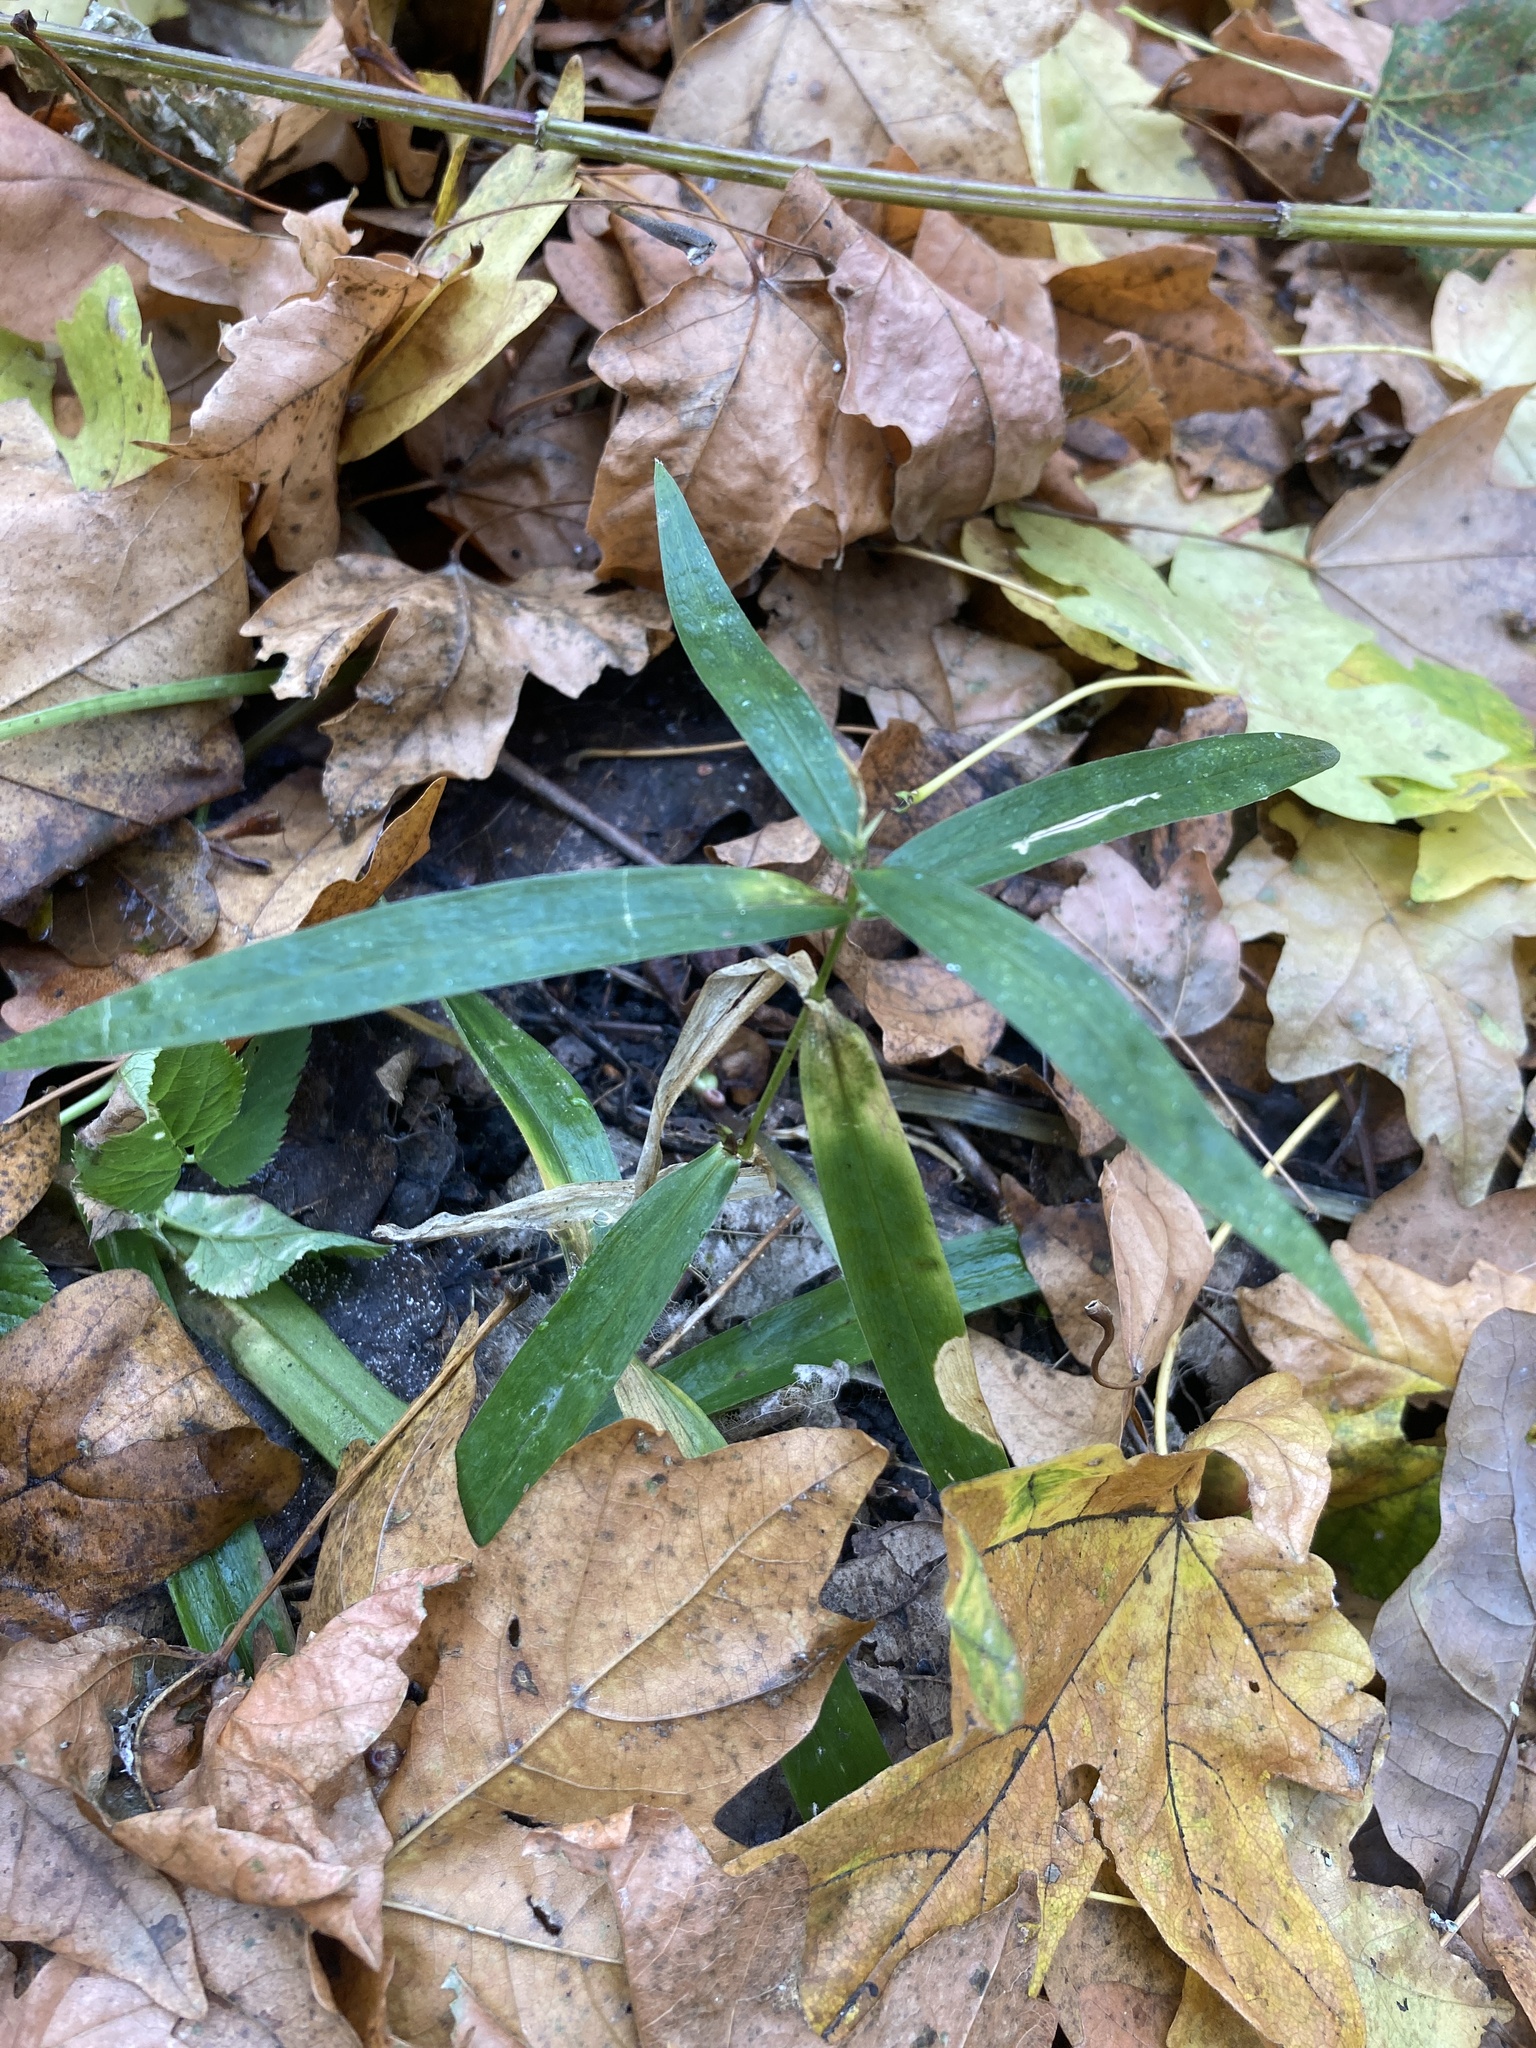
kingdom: Plantae
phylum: Tracheophyta
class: Magnoliopsida
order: Caryophyllales
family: Caryophyllaceae
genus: Rabelera
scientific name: Rabelera holostea
